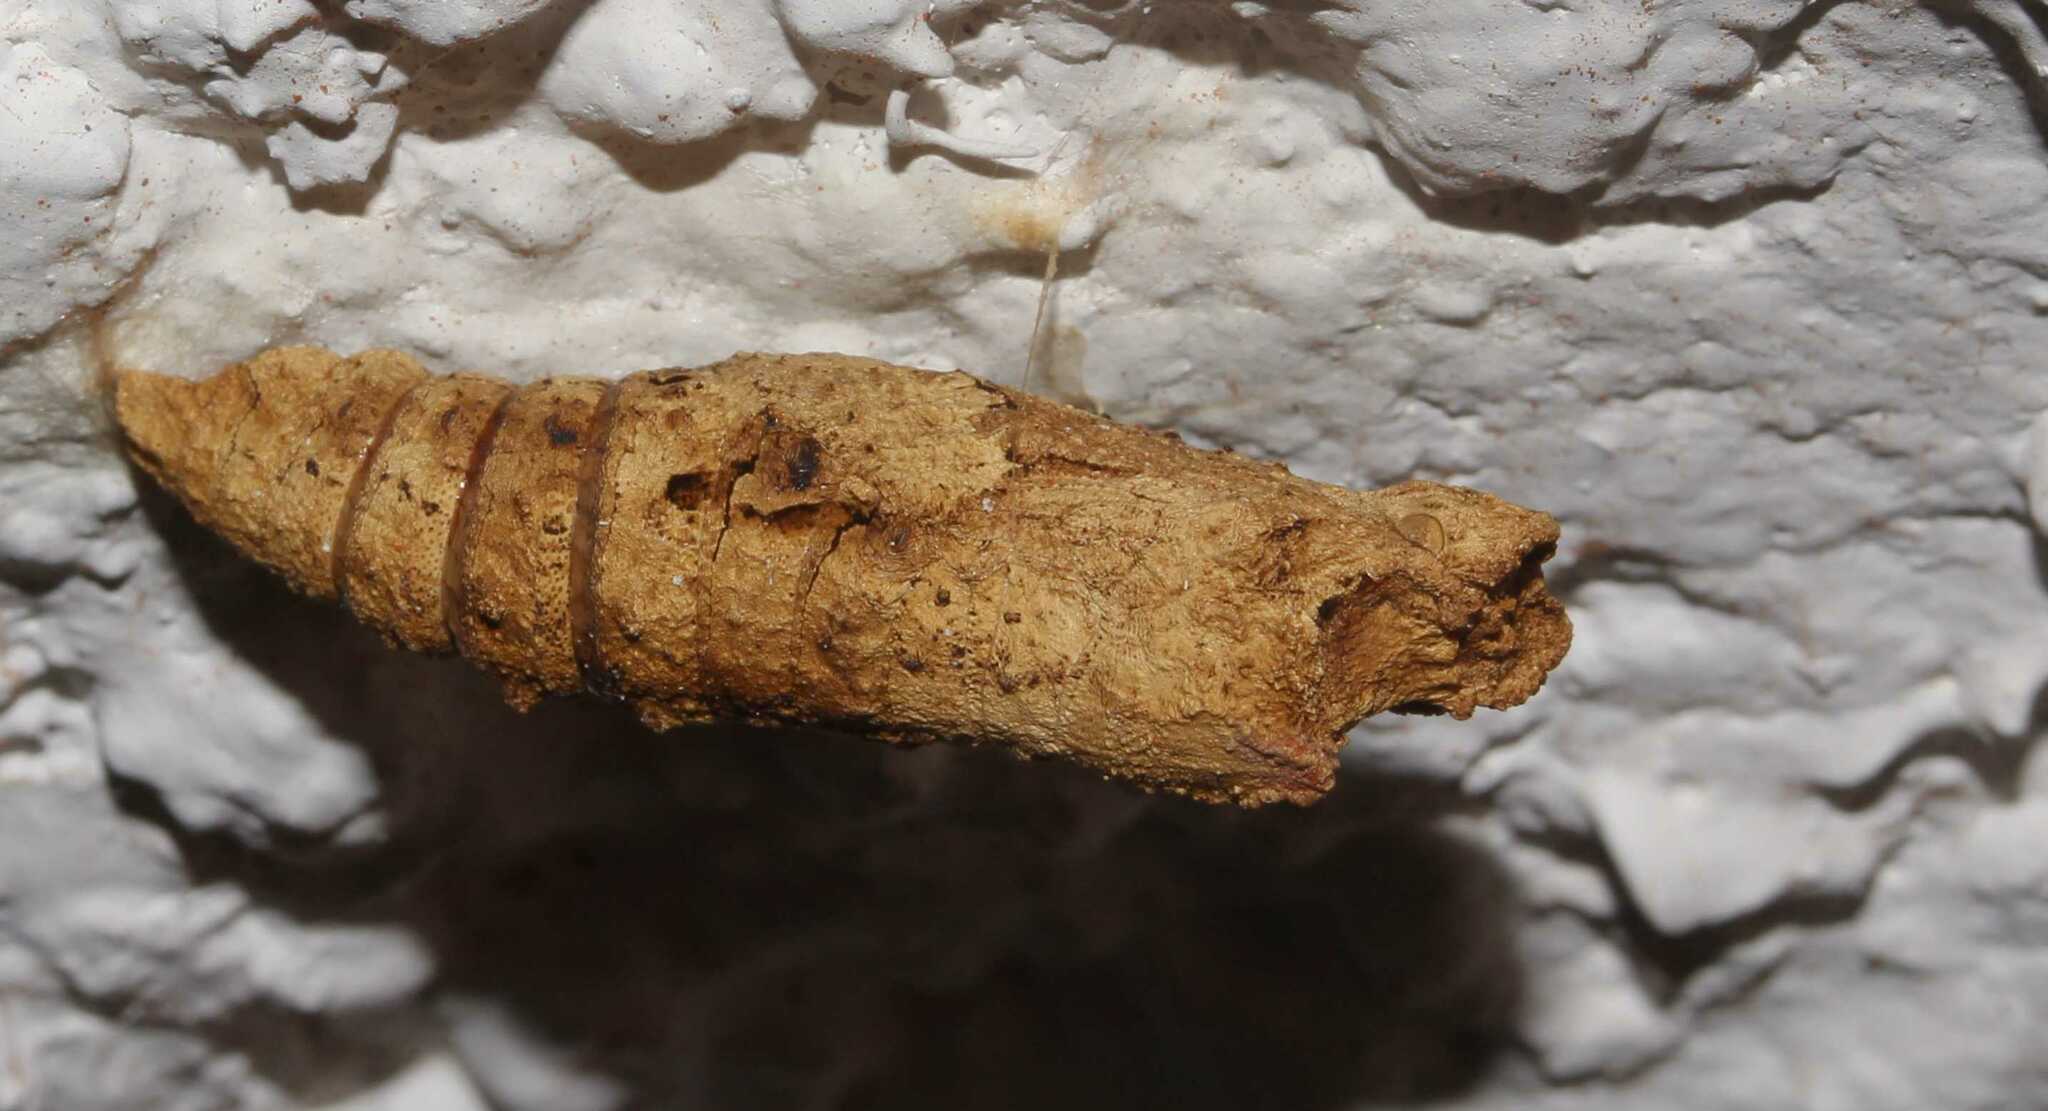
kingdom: Animalia
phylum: Arthropoda
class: Insecta
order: Lepidoptera
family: Papilionidae
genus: Papilio
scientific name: Papilio
